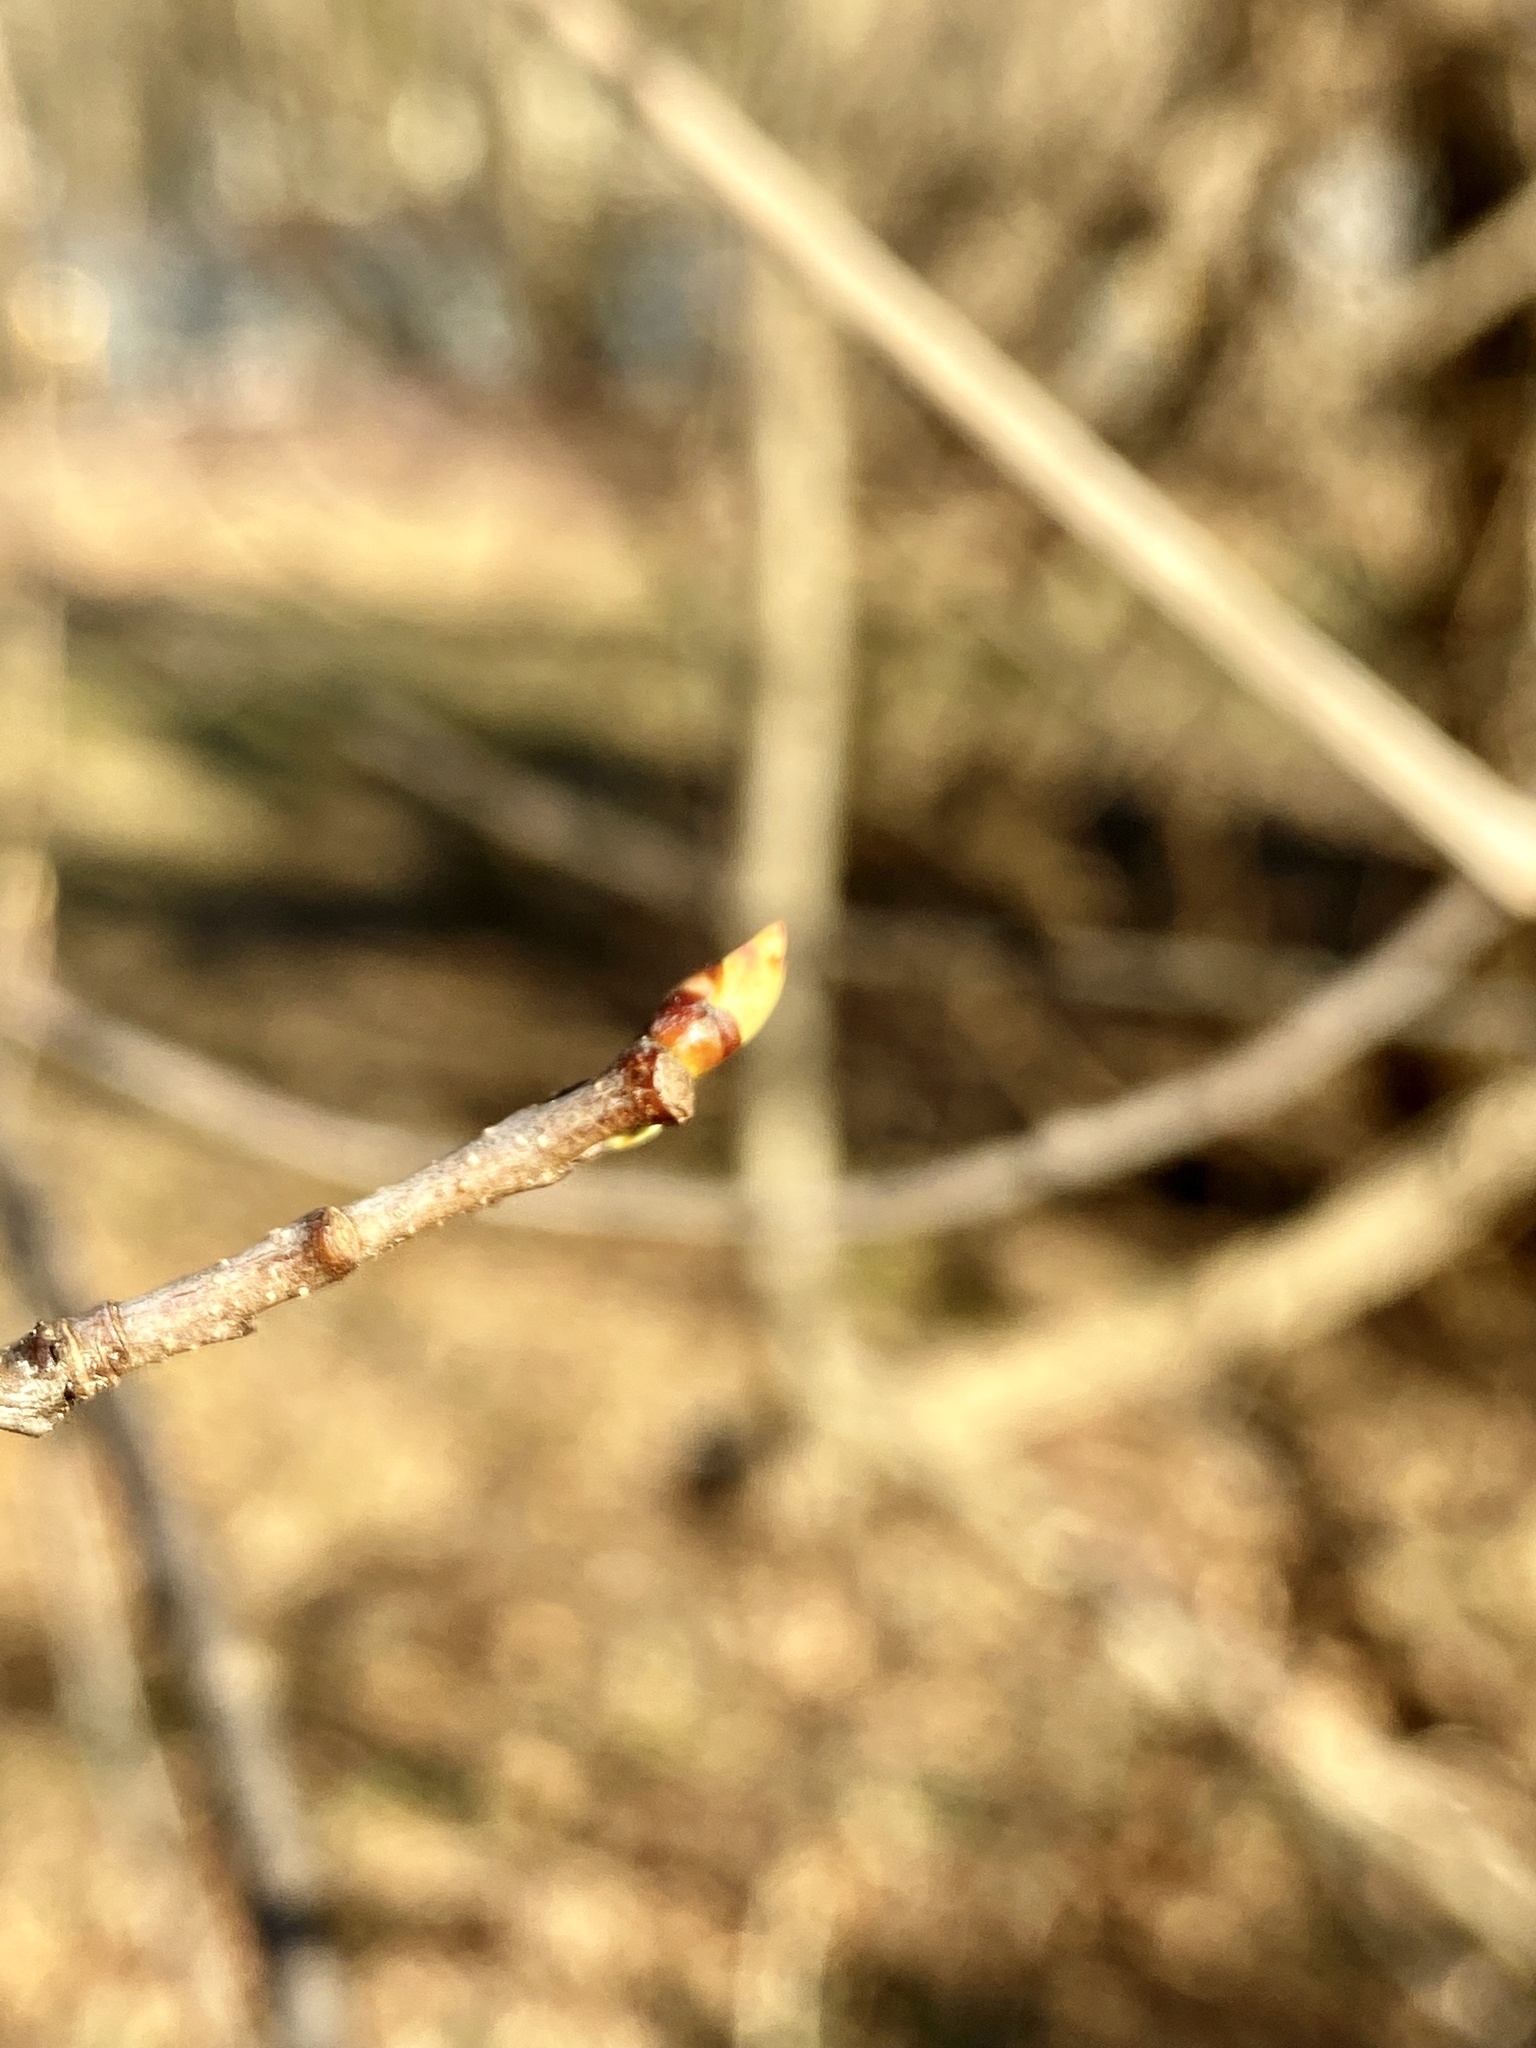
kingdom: Plantae
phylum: Tracheophyta
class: Magnoliopsida
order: Rosales
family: Rosaceae
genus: Prunus
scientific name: Prunus serotina
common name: Black cherry
